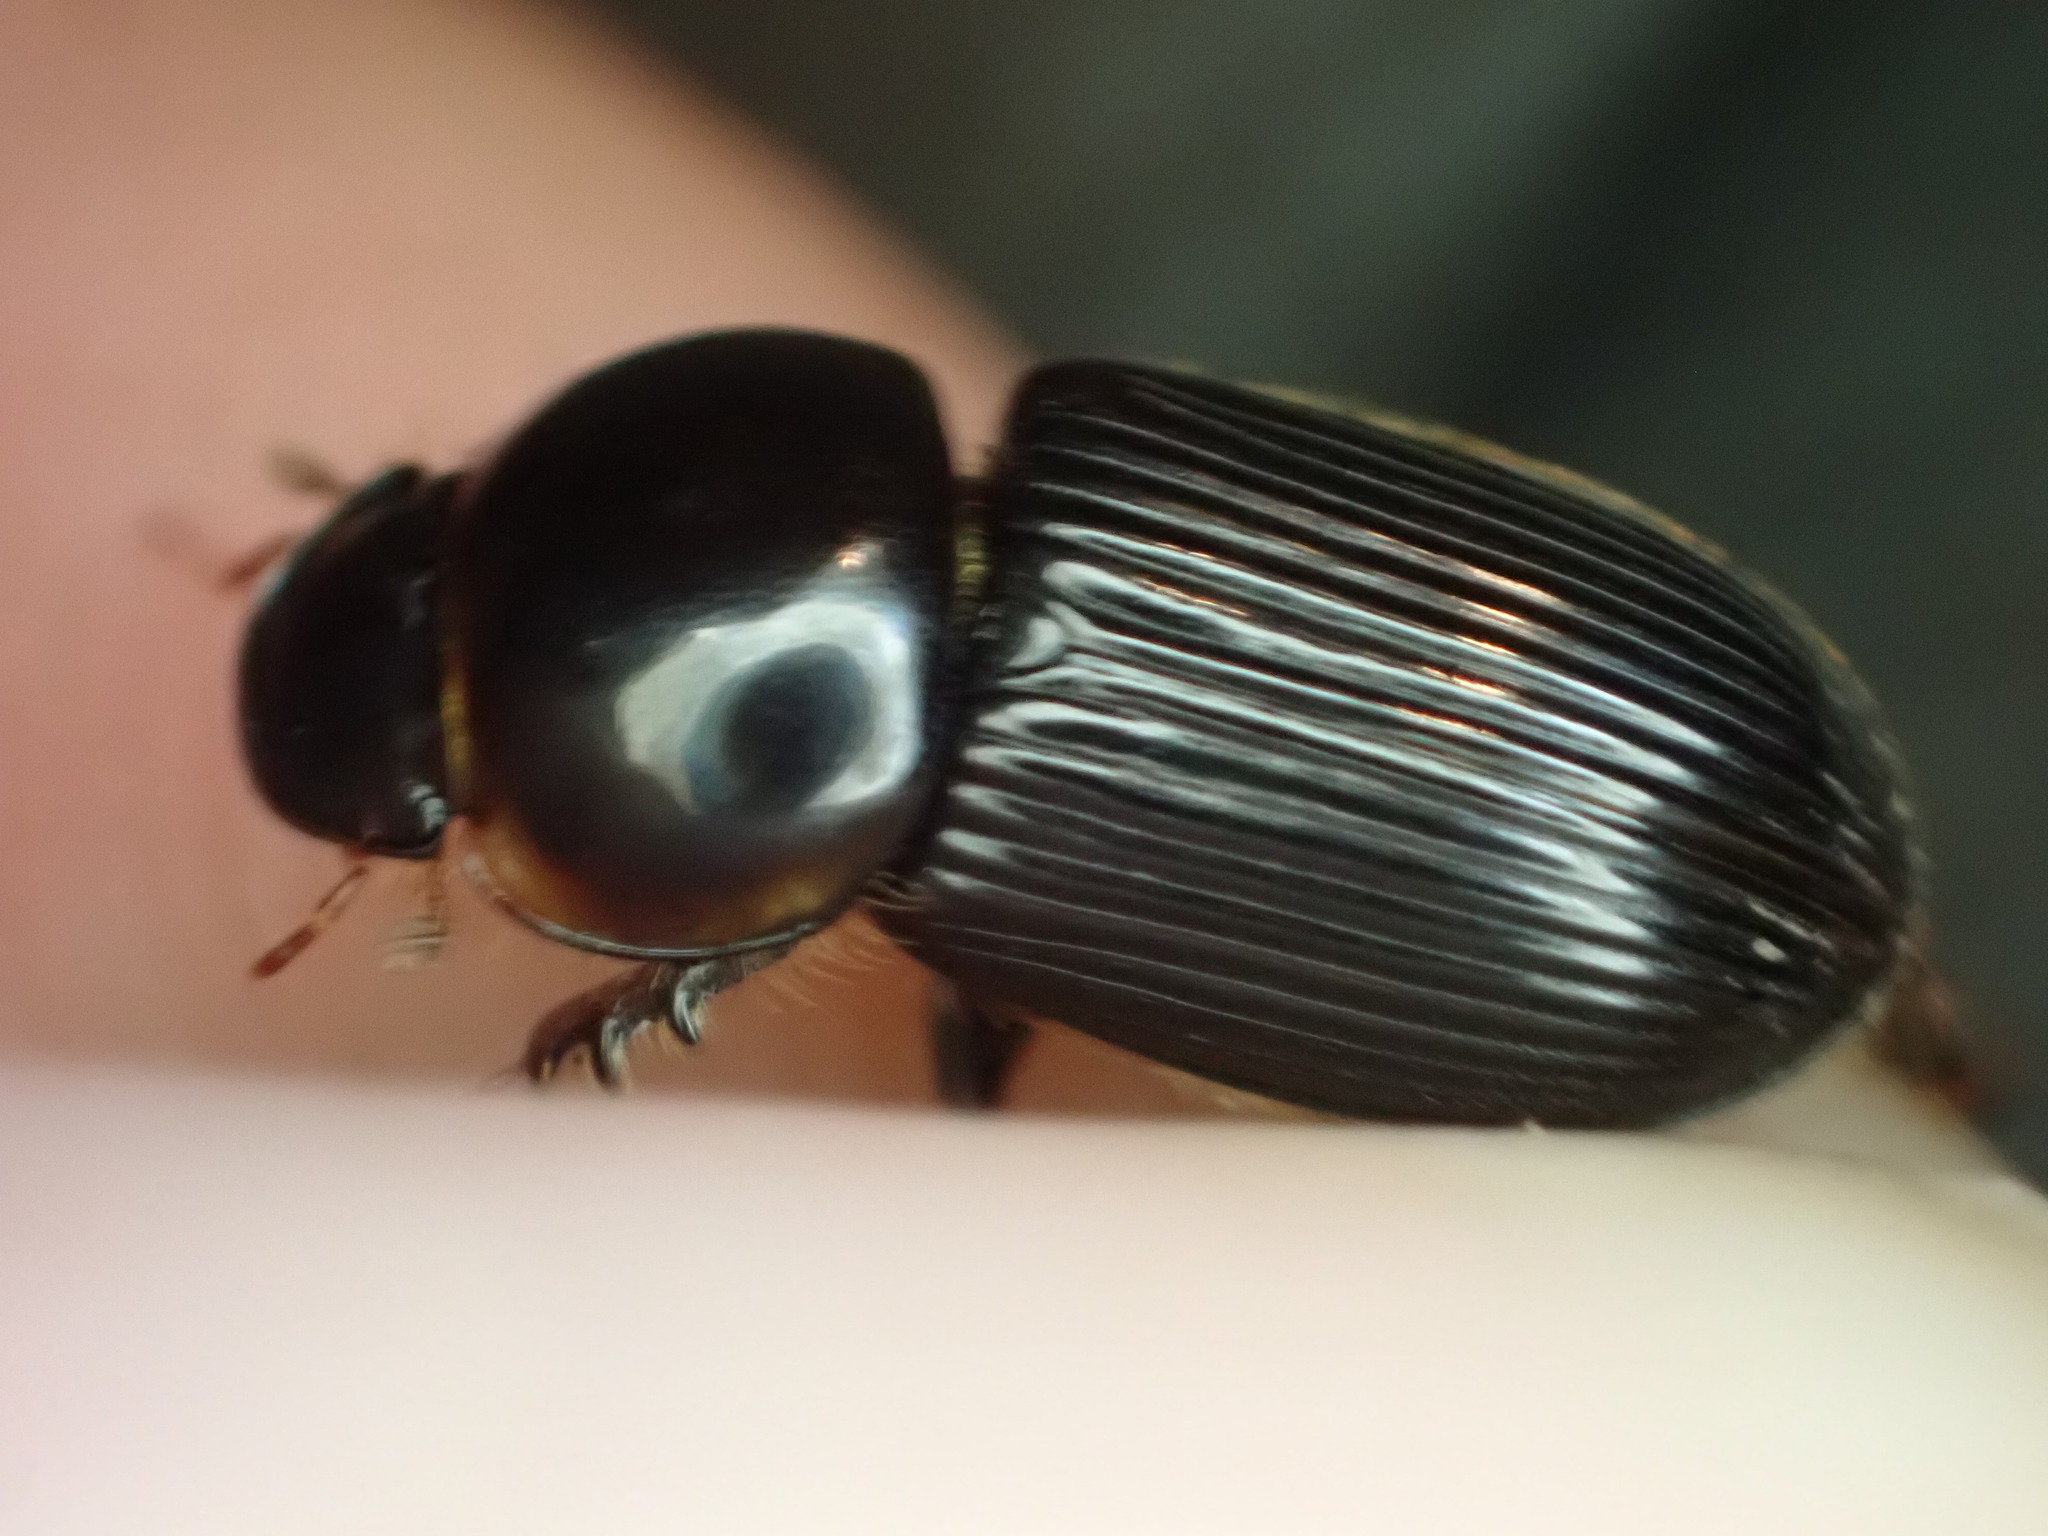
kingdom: Animalia
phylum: Arthropoda
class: Insecta
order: Coleoptera
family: Scarabaeidae
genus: Acrossidius
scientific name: Acrossidius tasmaniae
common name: Black-headed pasture cockchafer
